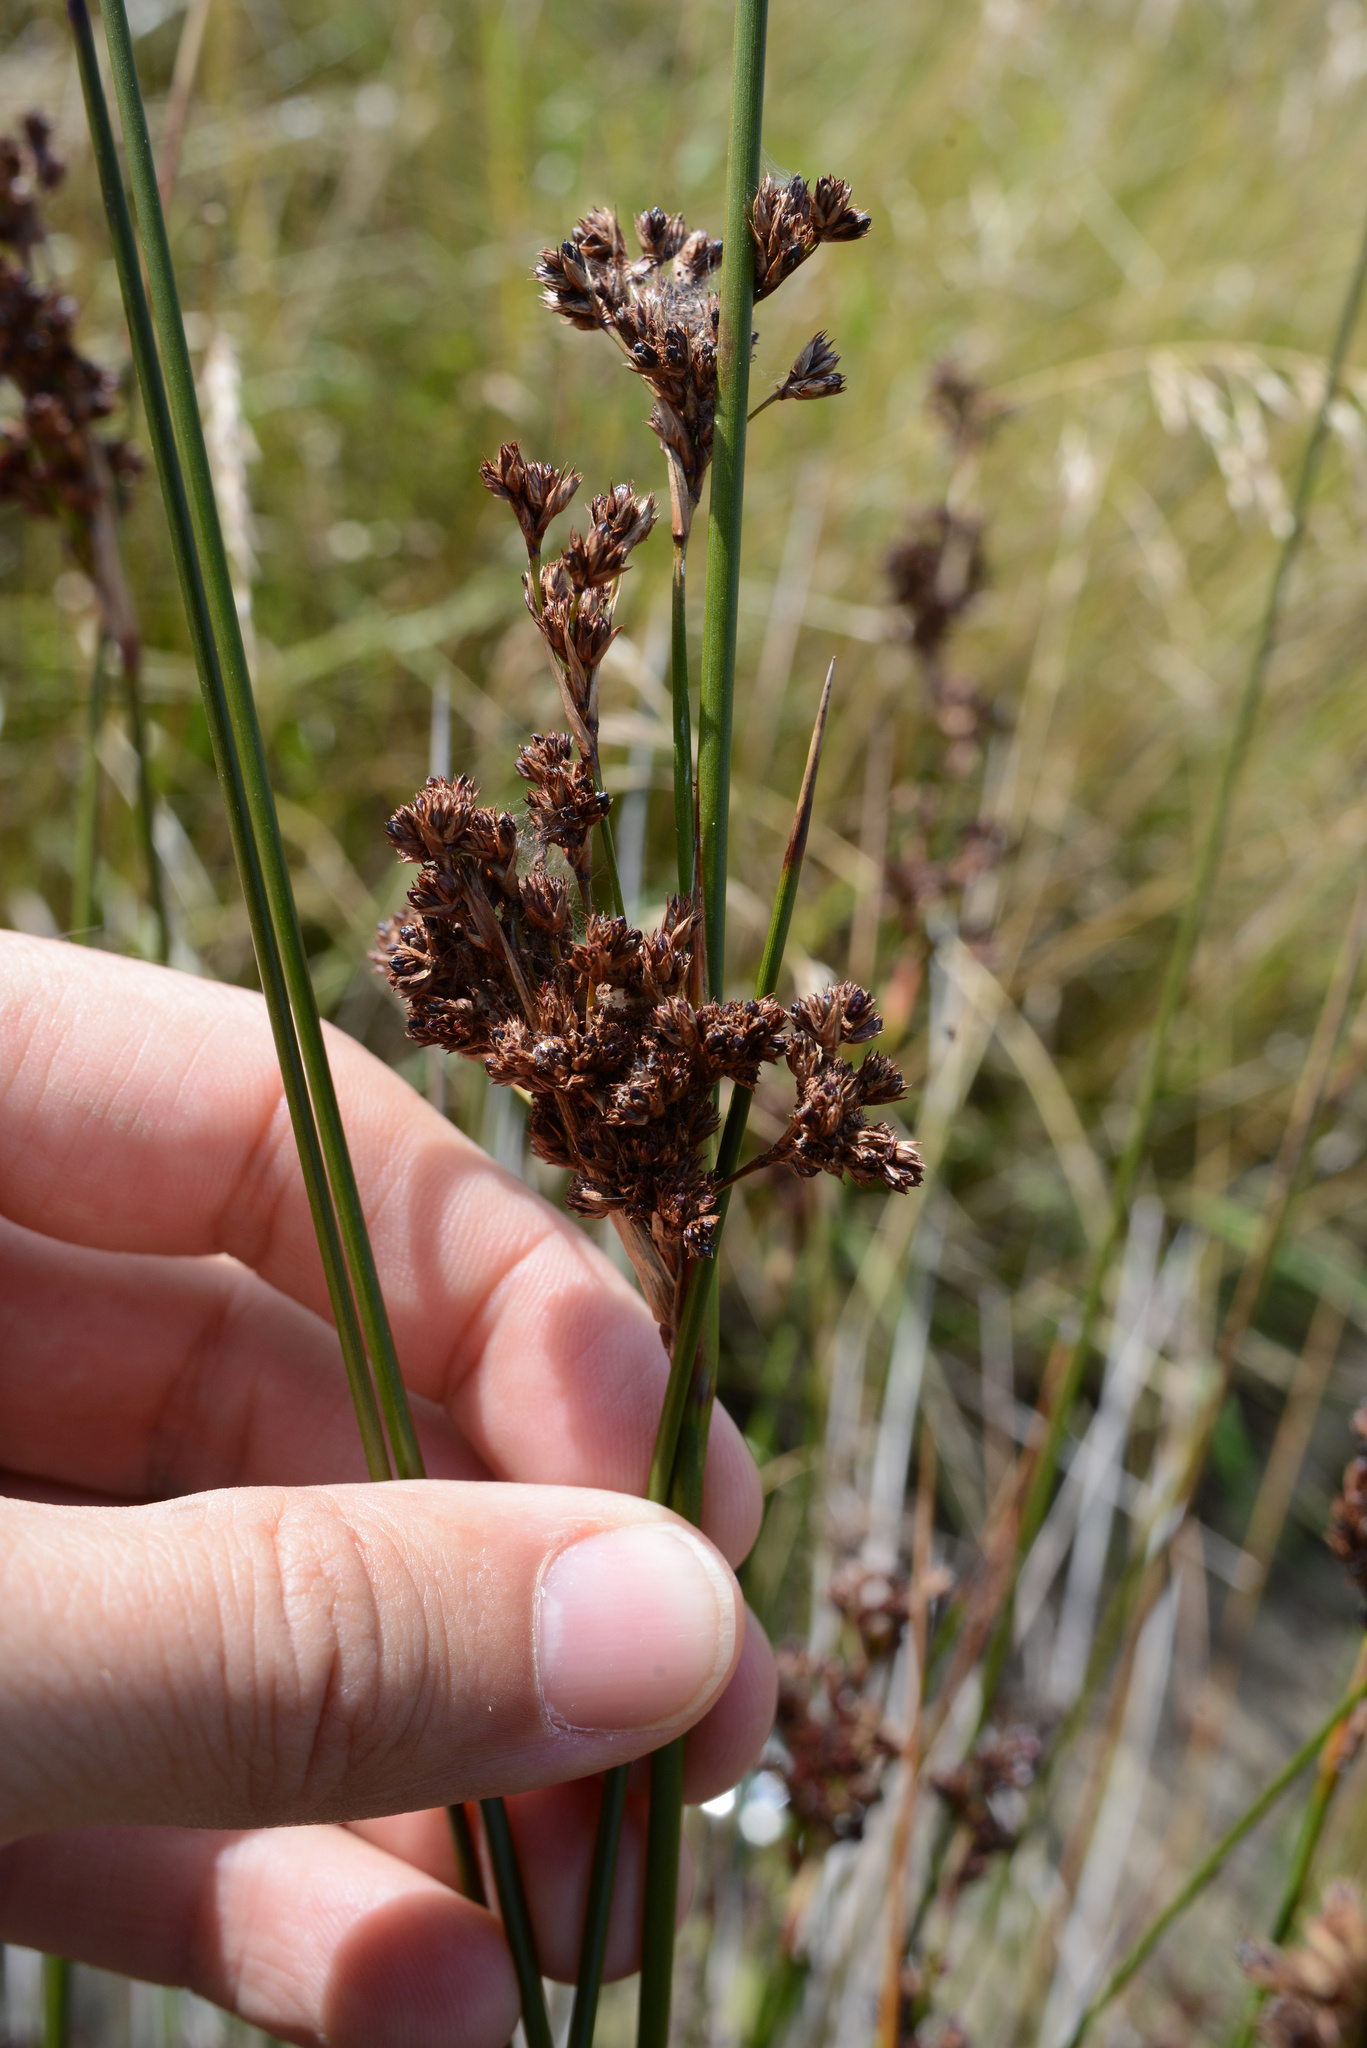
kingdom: Plantae
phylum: Tracheophyta
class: Liliopsida
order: Poales
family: Juncaceae
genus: Juncus
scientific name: Juncus kraussii
